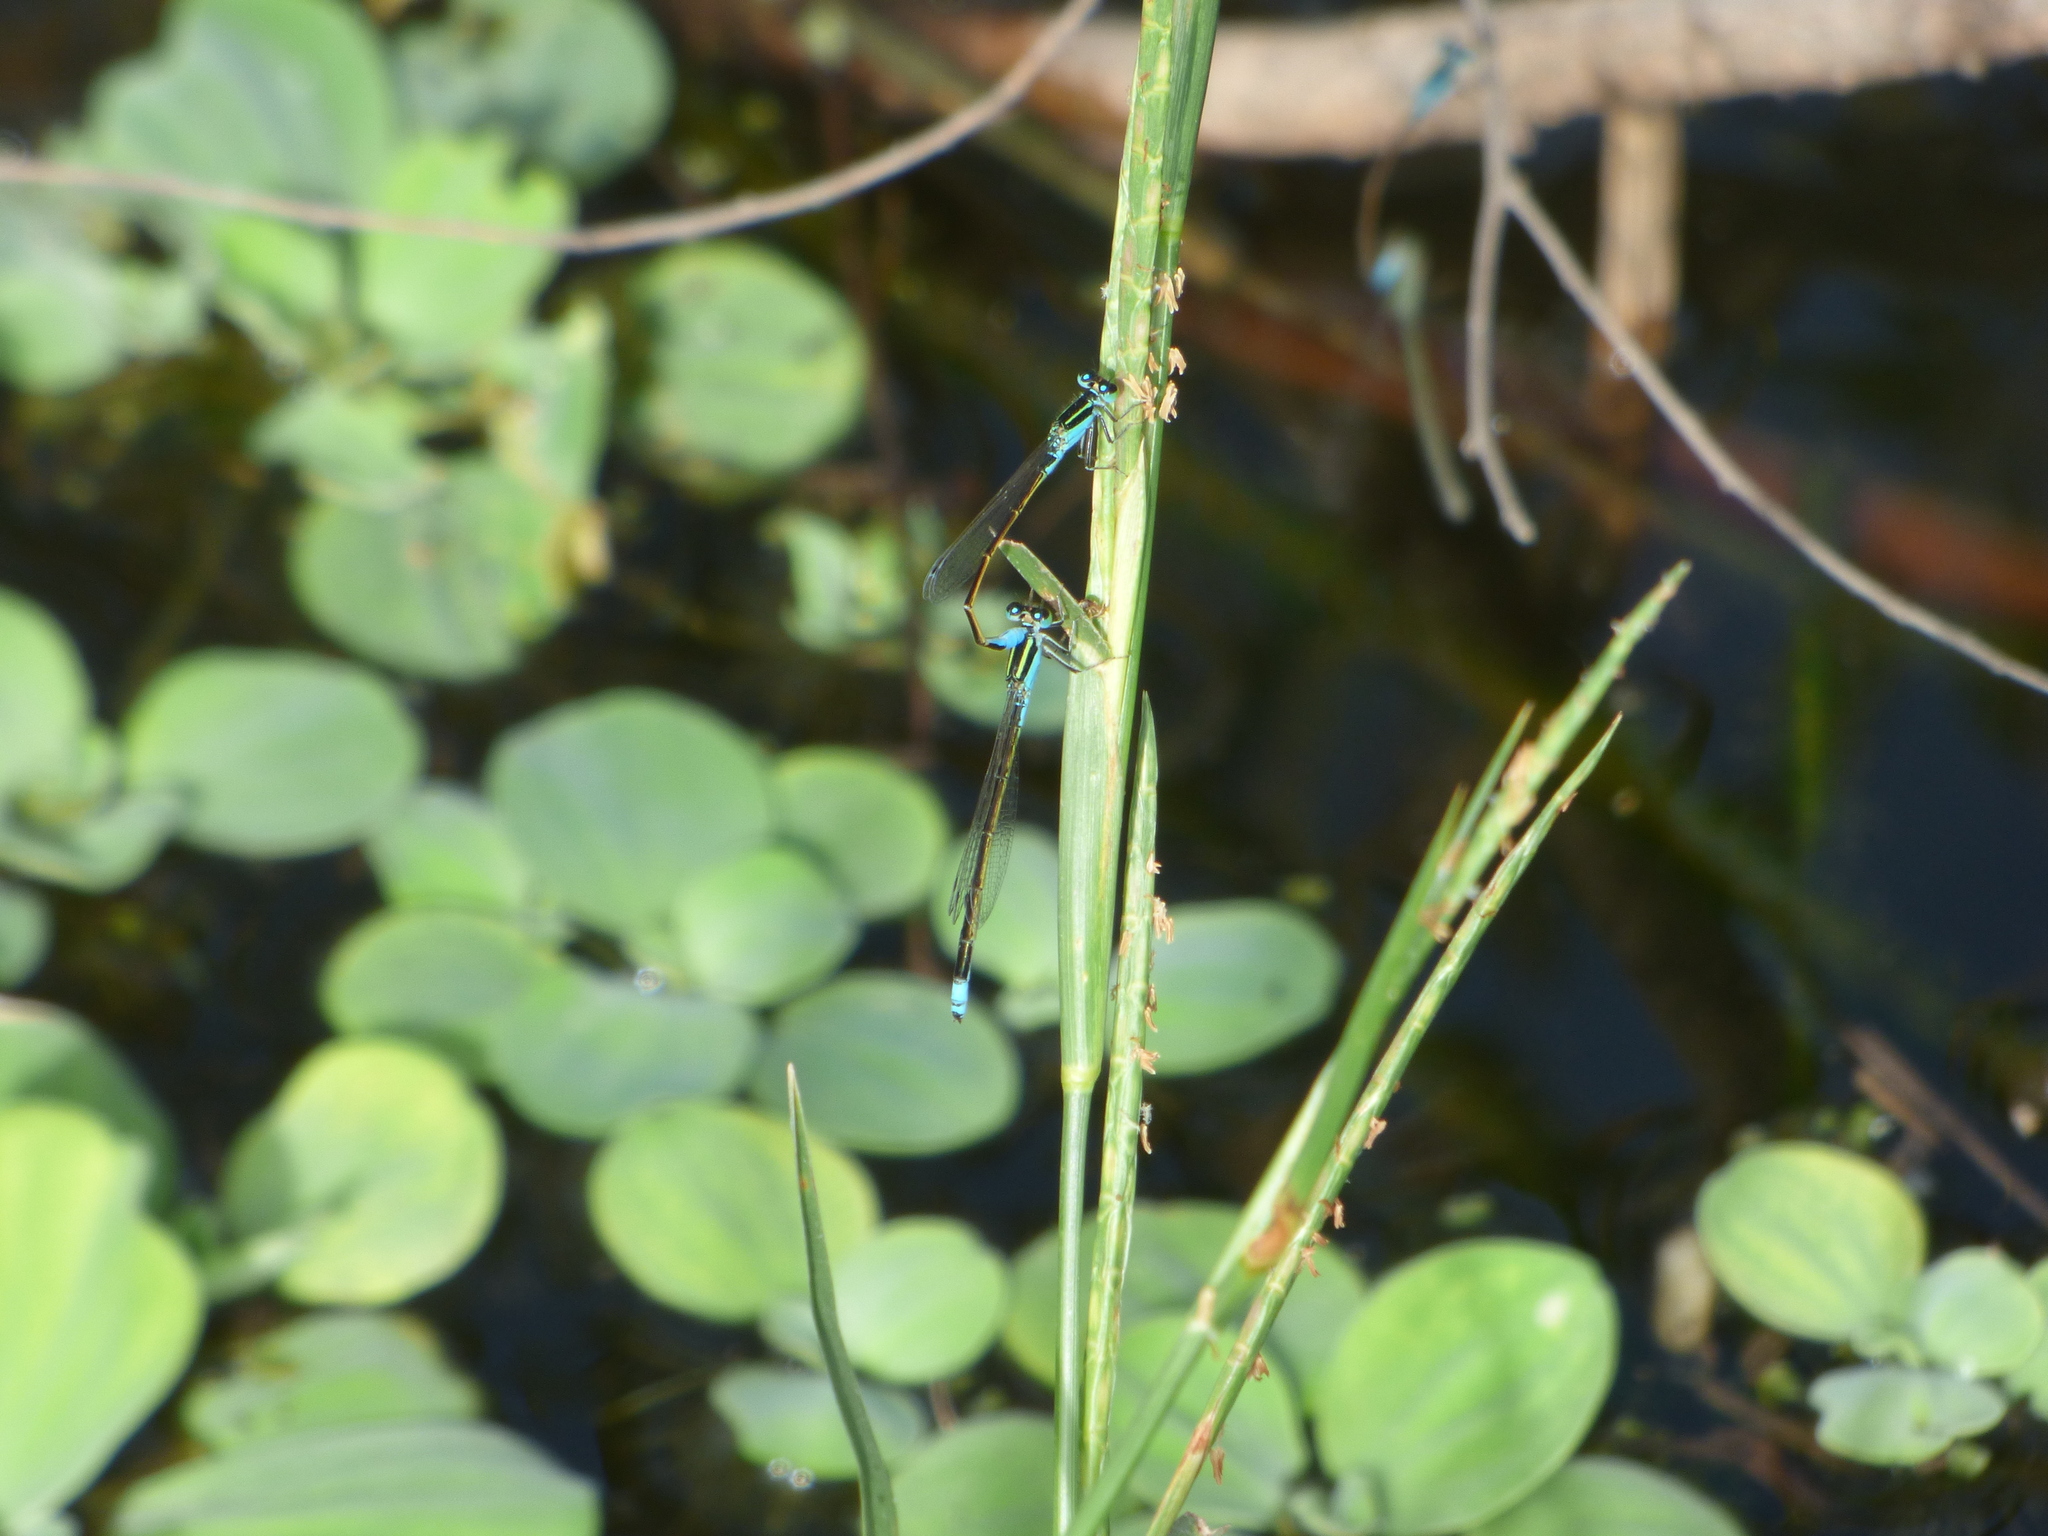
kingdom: Animalia
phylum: Arthropoda
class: Insecta
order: Odonata
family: Coenagrionidae
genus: Ischnura
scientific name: Ischnura fluviatilis
